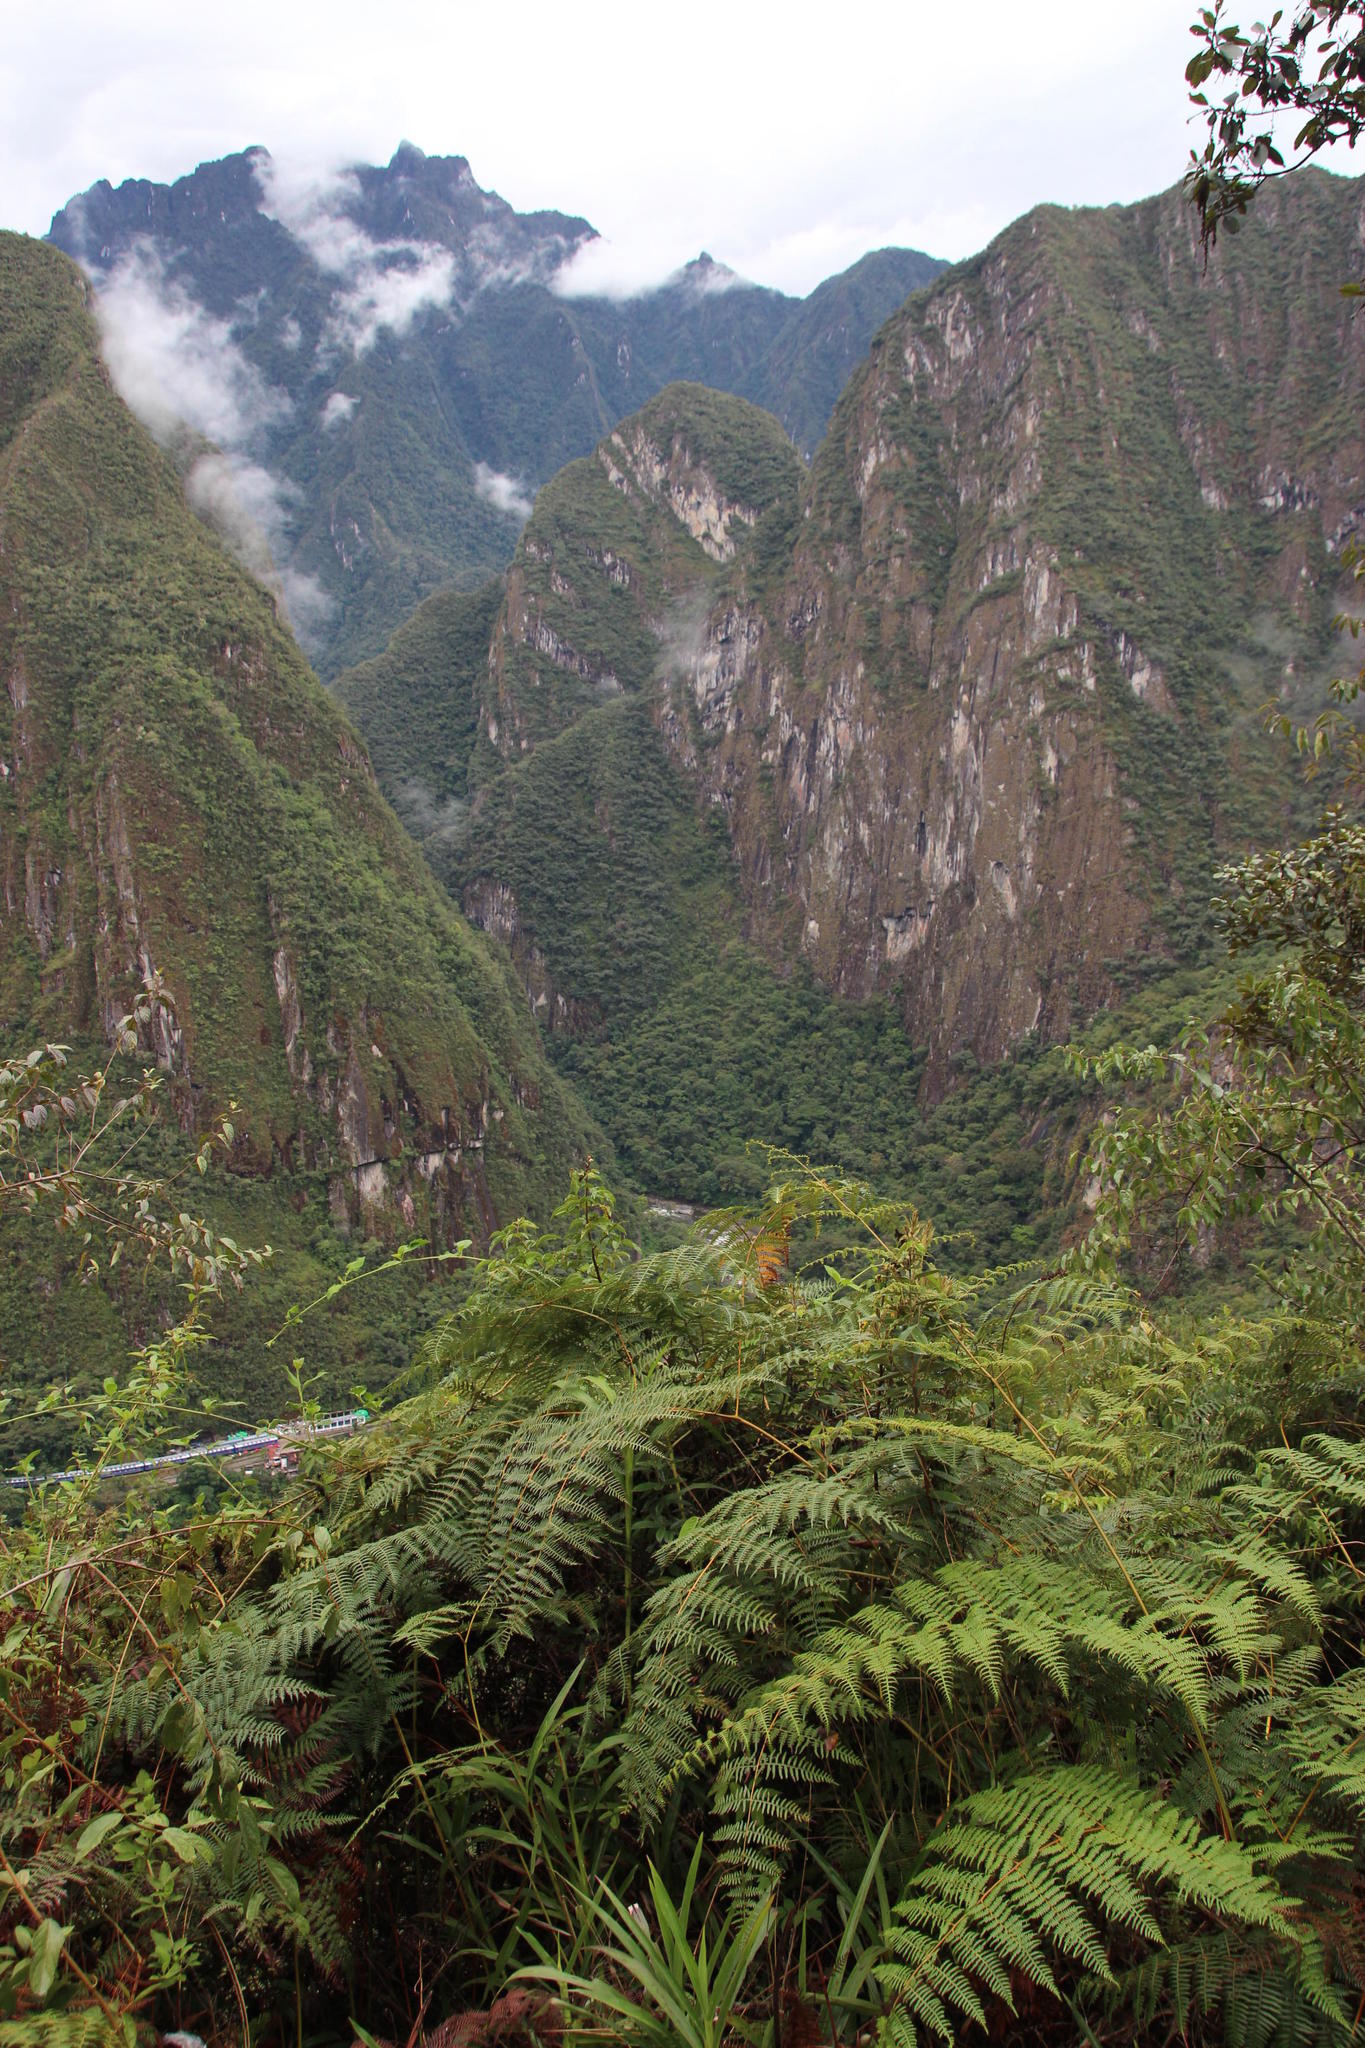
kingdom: Plantae
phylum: Tracheophyta
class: Polypodiopsida
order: Polypodiales
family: Dennstaedtiaceae
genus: Pteridium
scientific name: Pteridium esculentum
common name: Bracken fern
